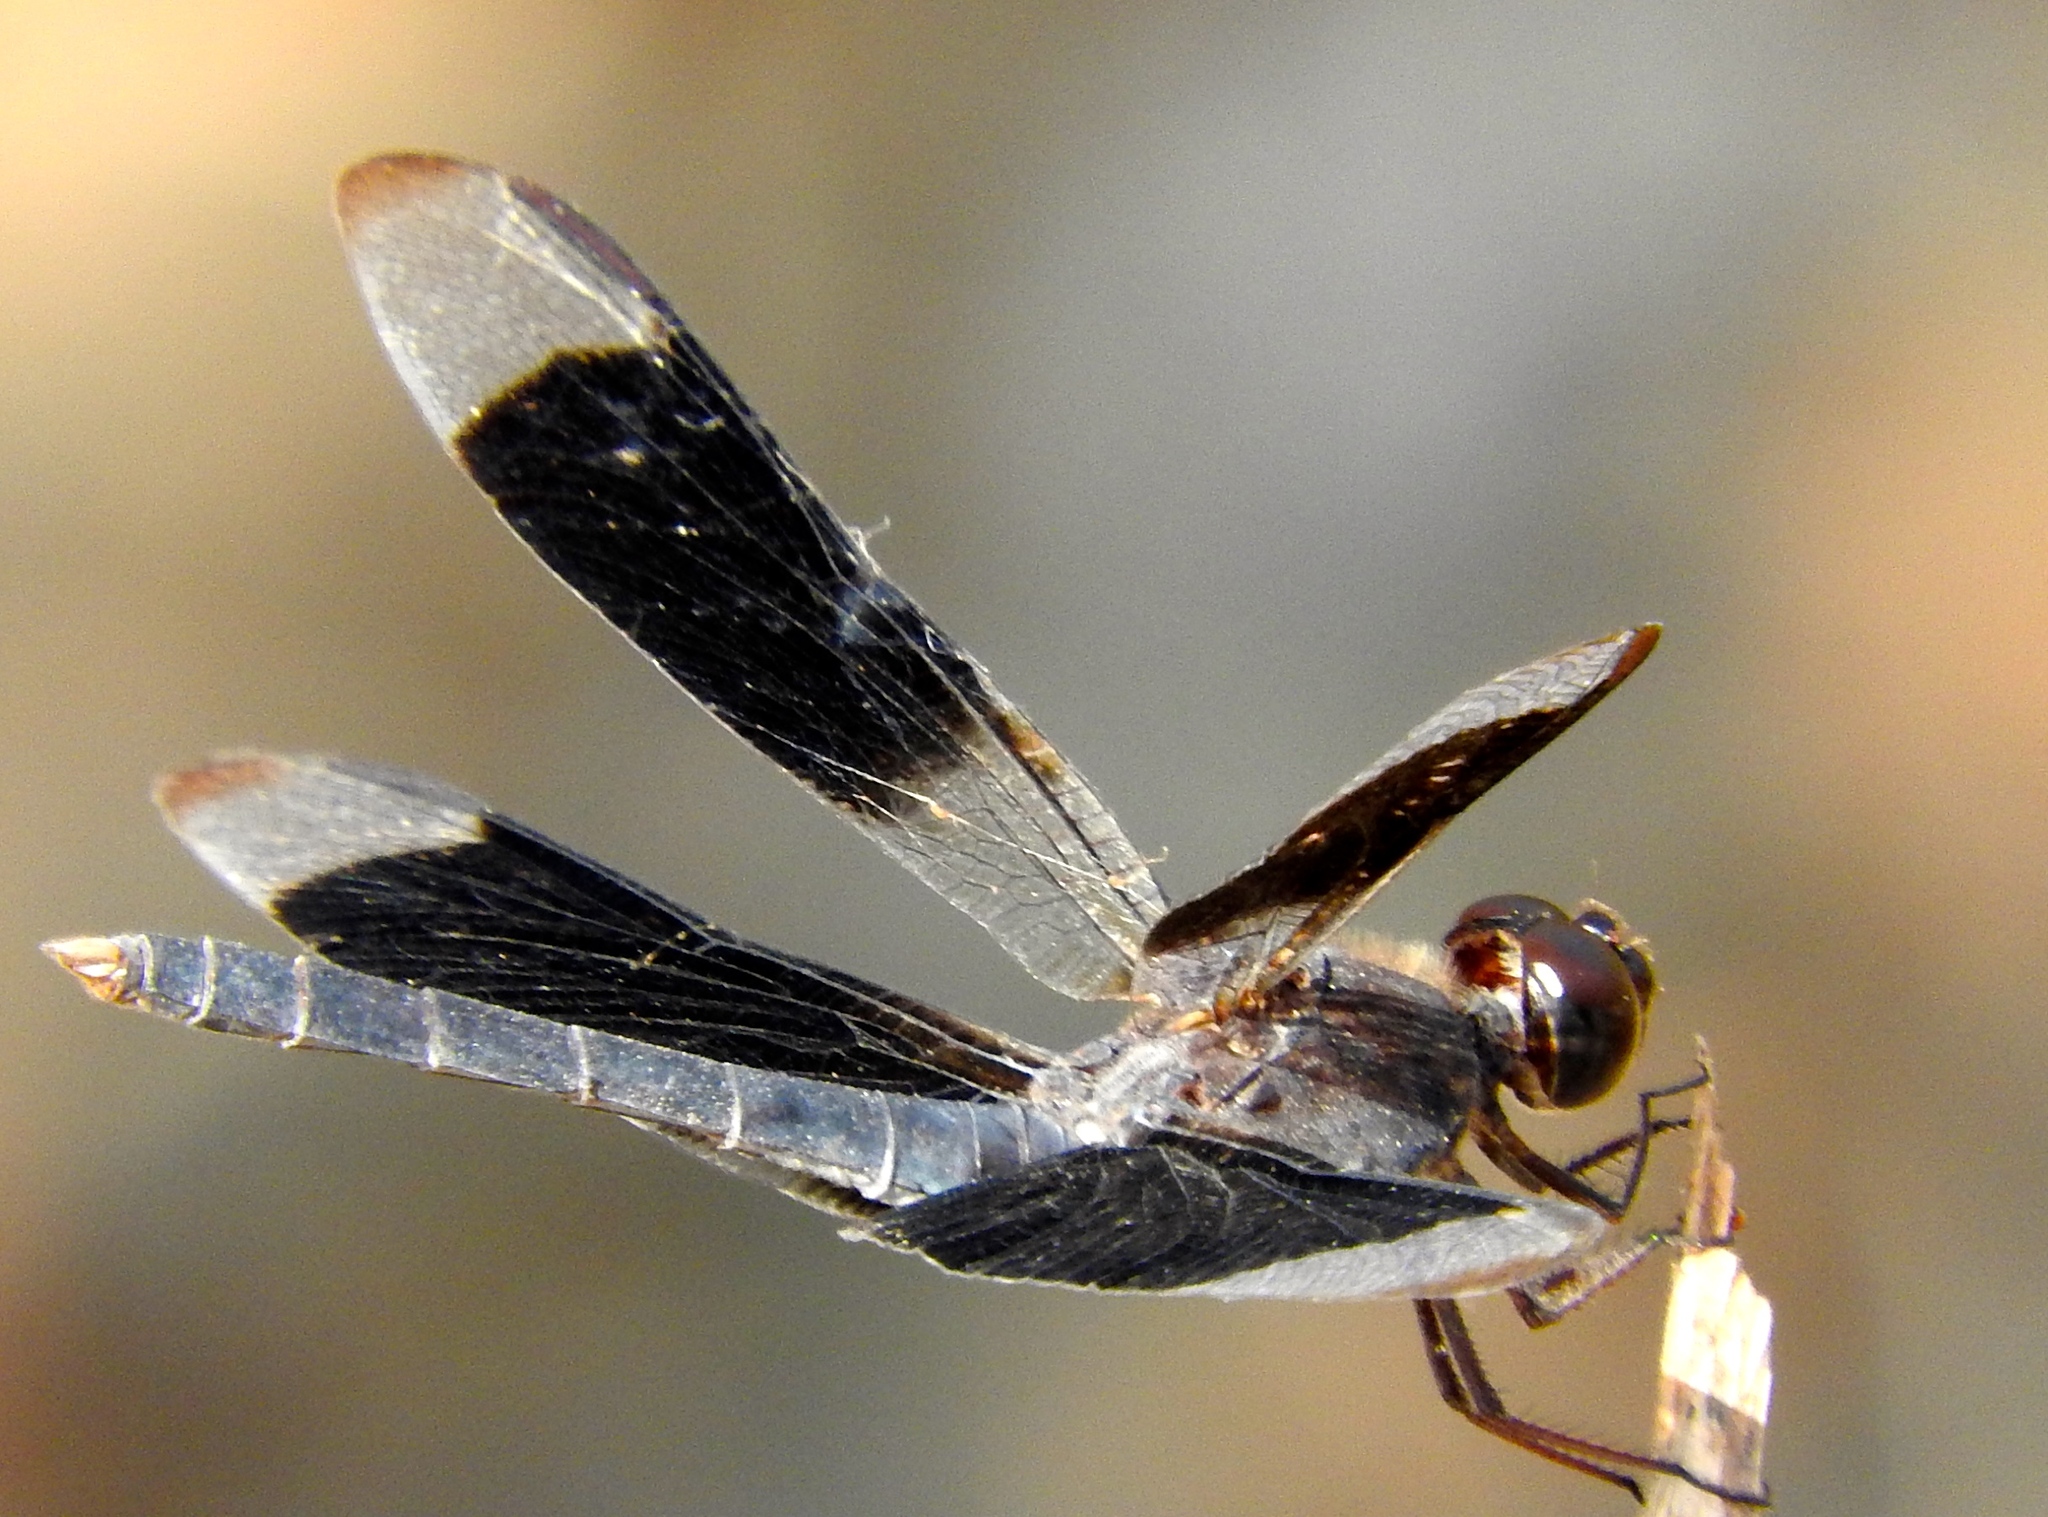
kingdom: Animalia
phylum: Arthropoda
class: Insecta
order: Odonata
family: Libellulidae
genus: Erythrodiplax
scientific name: Erythrodiplax funerea
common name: Black-winged dragonlet
